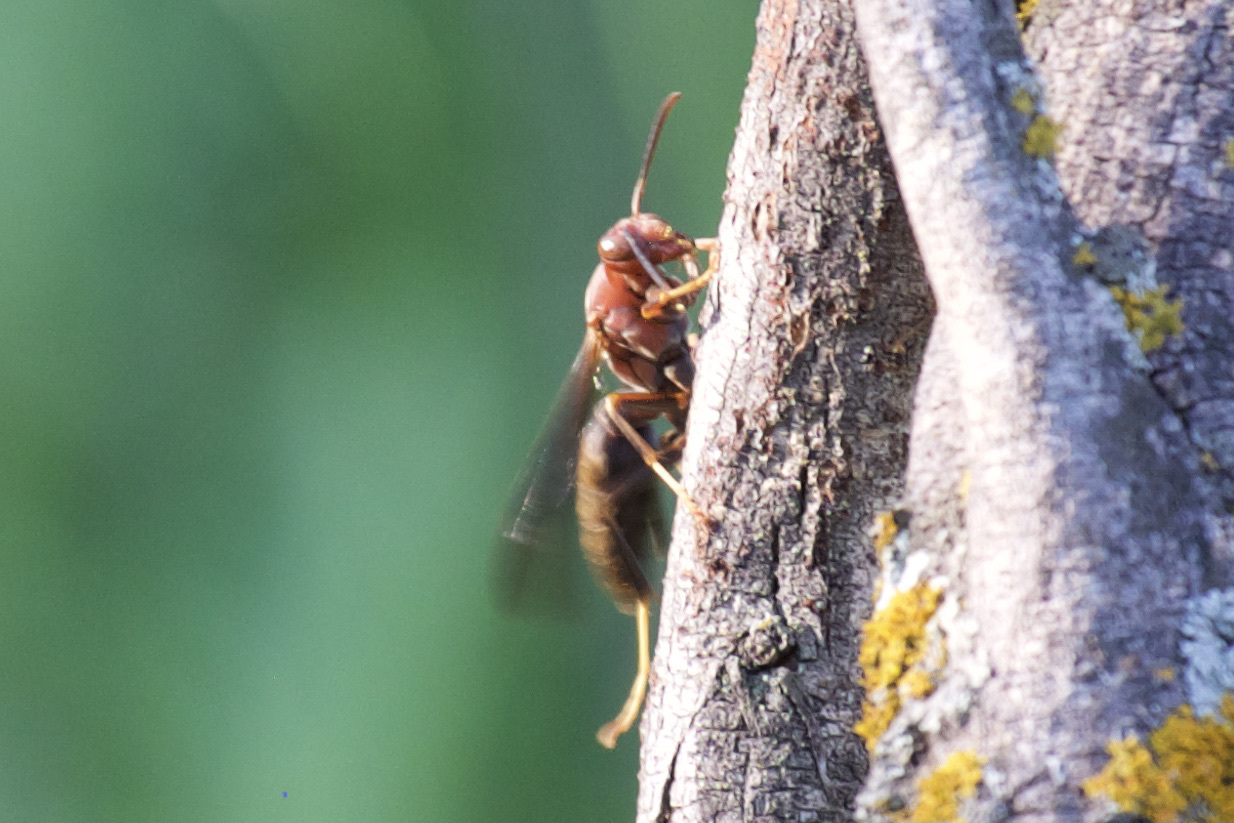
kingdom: Animalia
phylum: Arthropoda
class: Insecta
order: Hymenoptera
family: Eumenidae
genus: Polistes
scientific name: Polistes metricus
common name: Metric paper wasp
